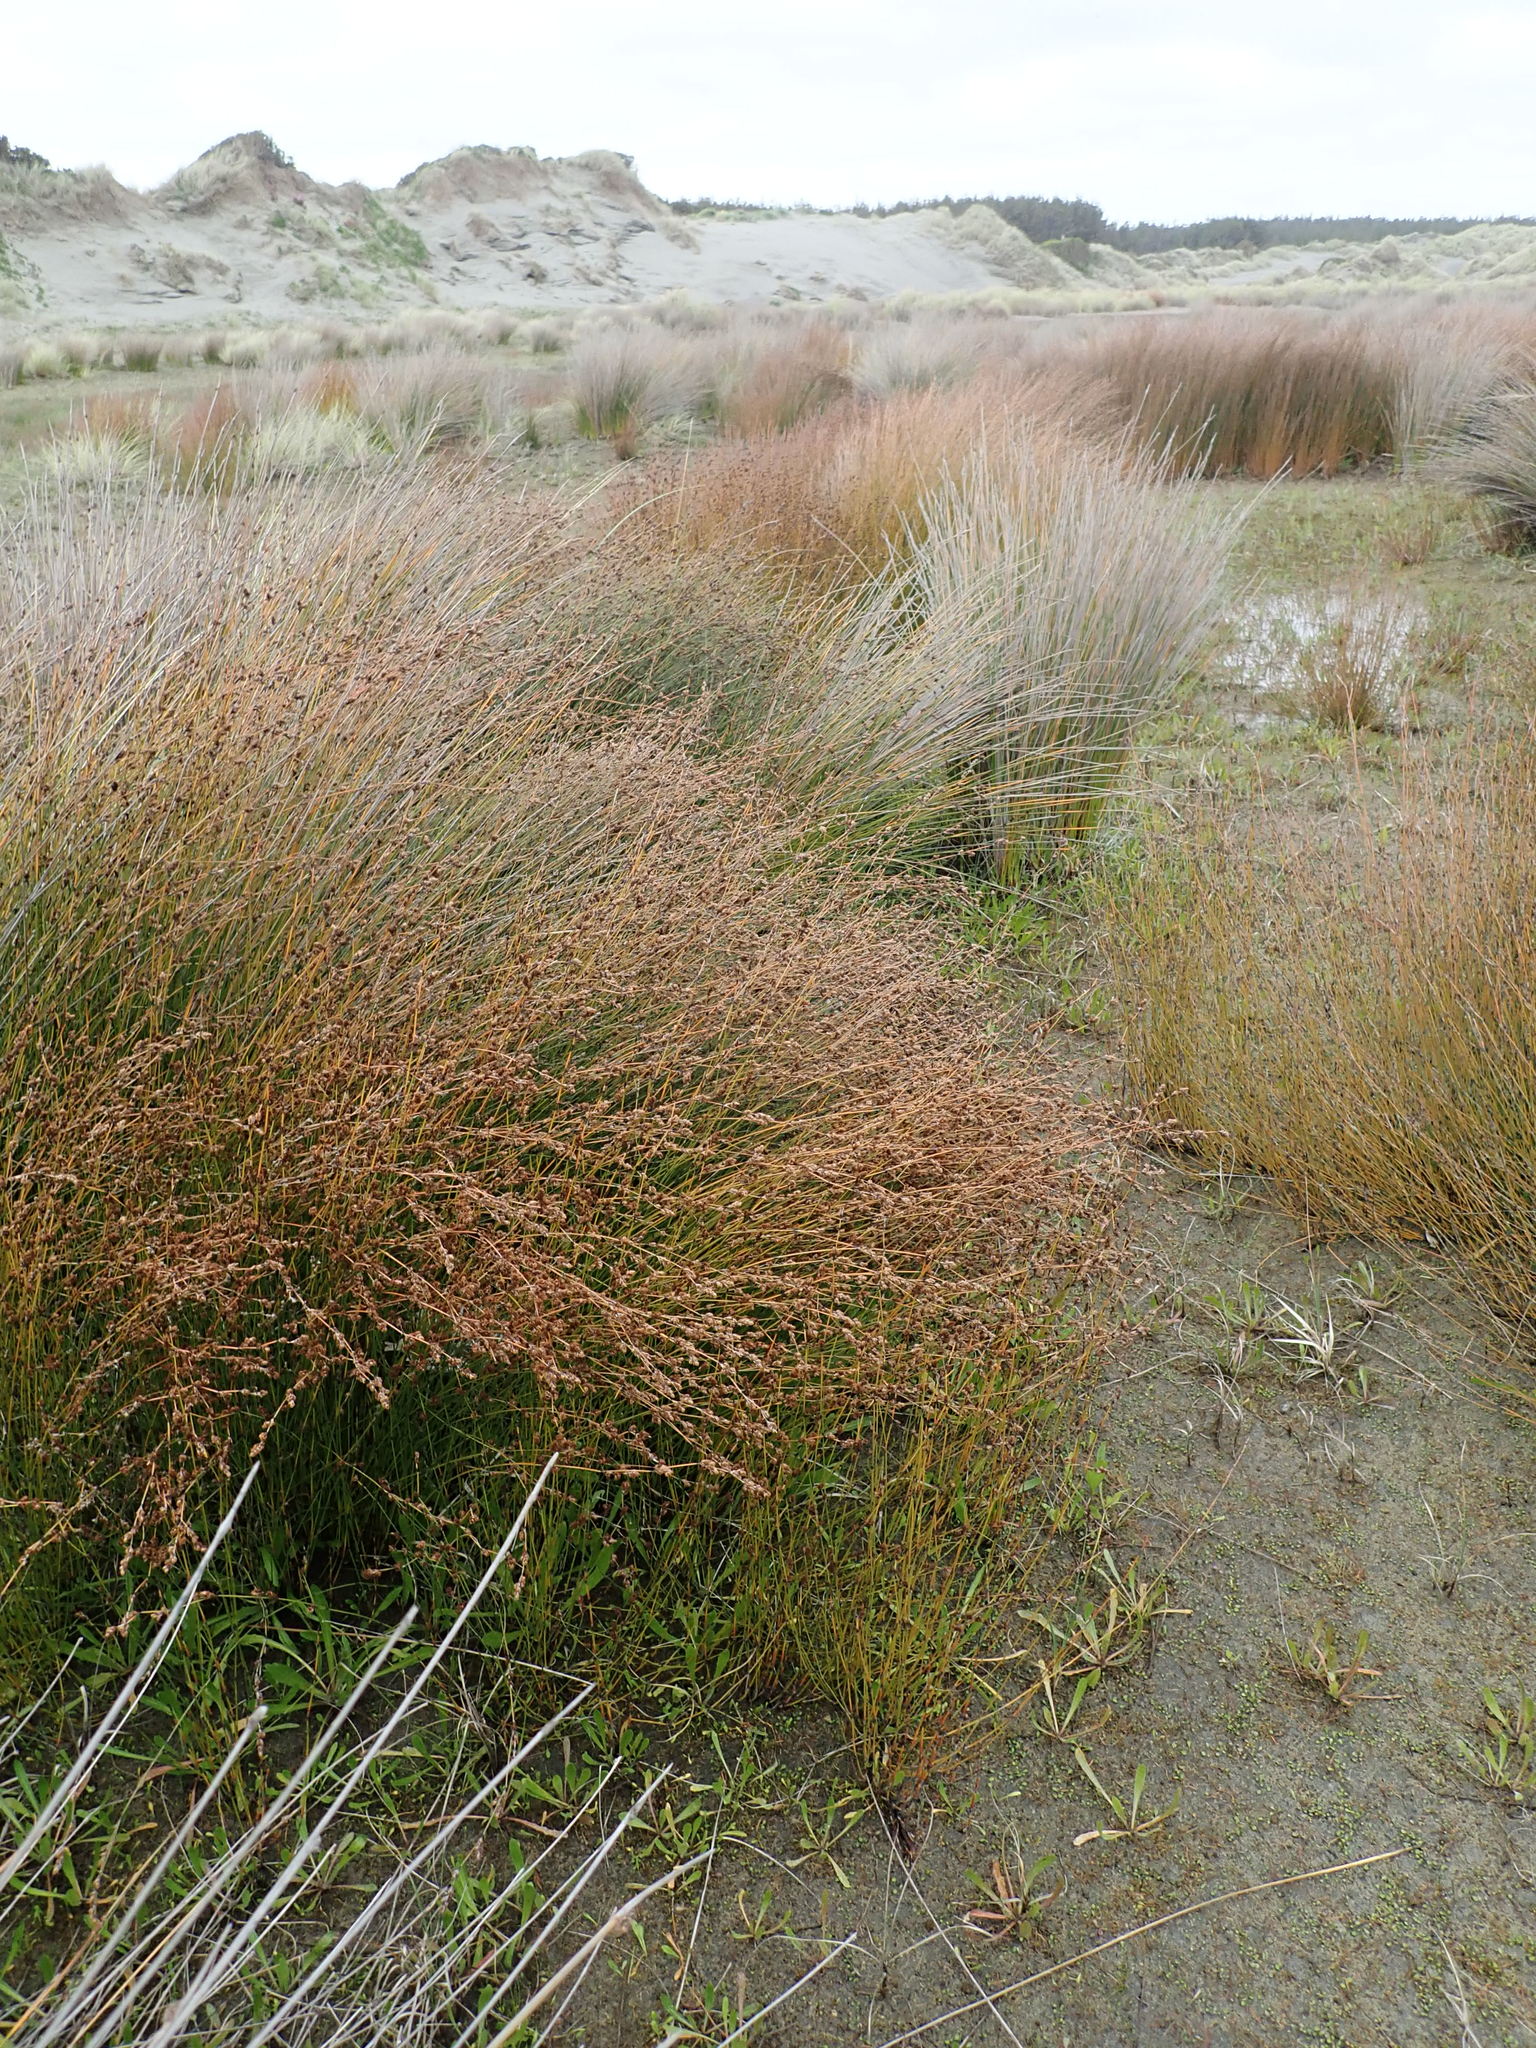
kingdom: Plantae
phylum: Tracheophyta
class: Liliopsida
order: Poales
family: Restionaceae
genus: Apodasmia
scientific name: Apodasmia similis
